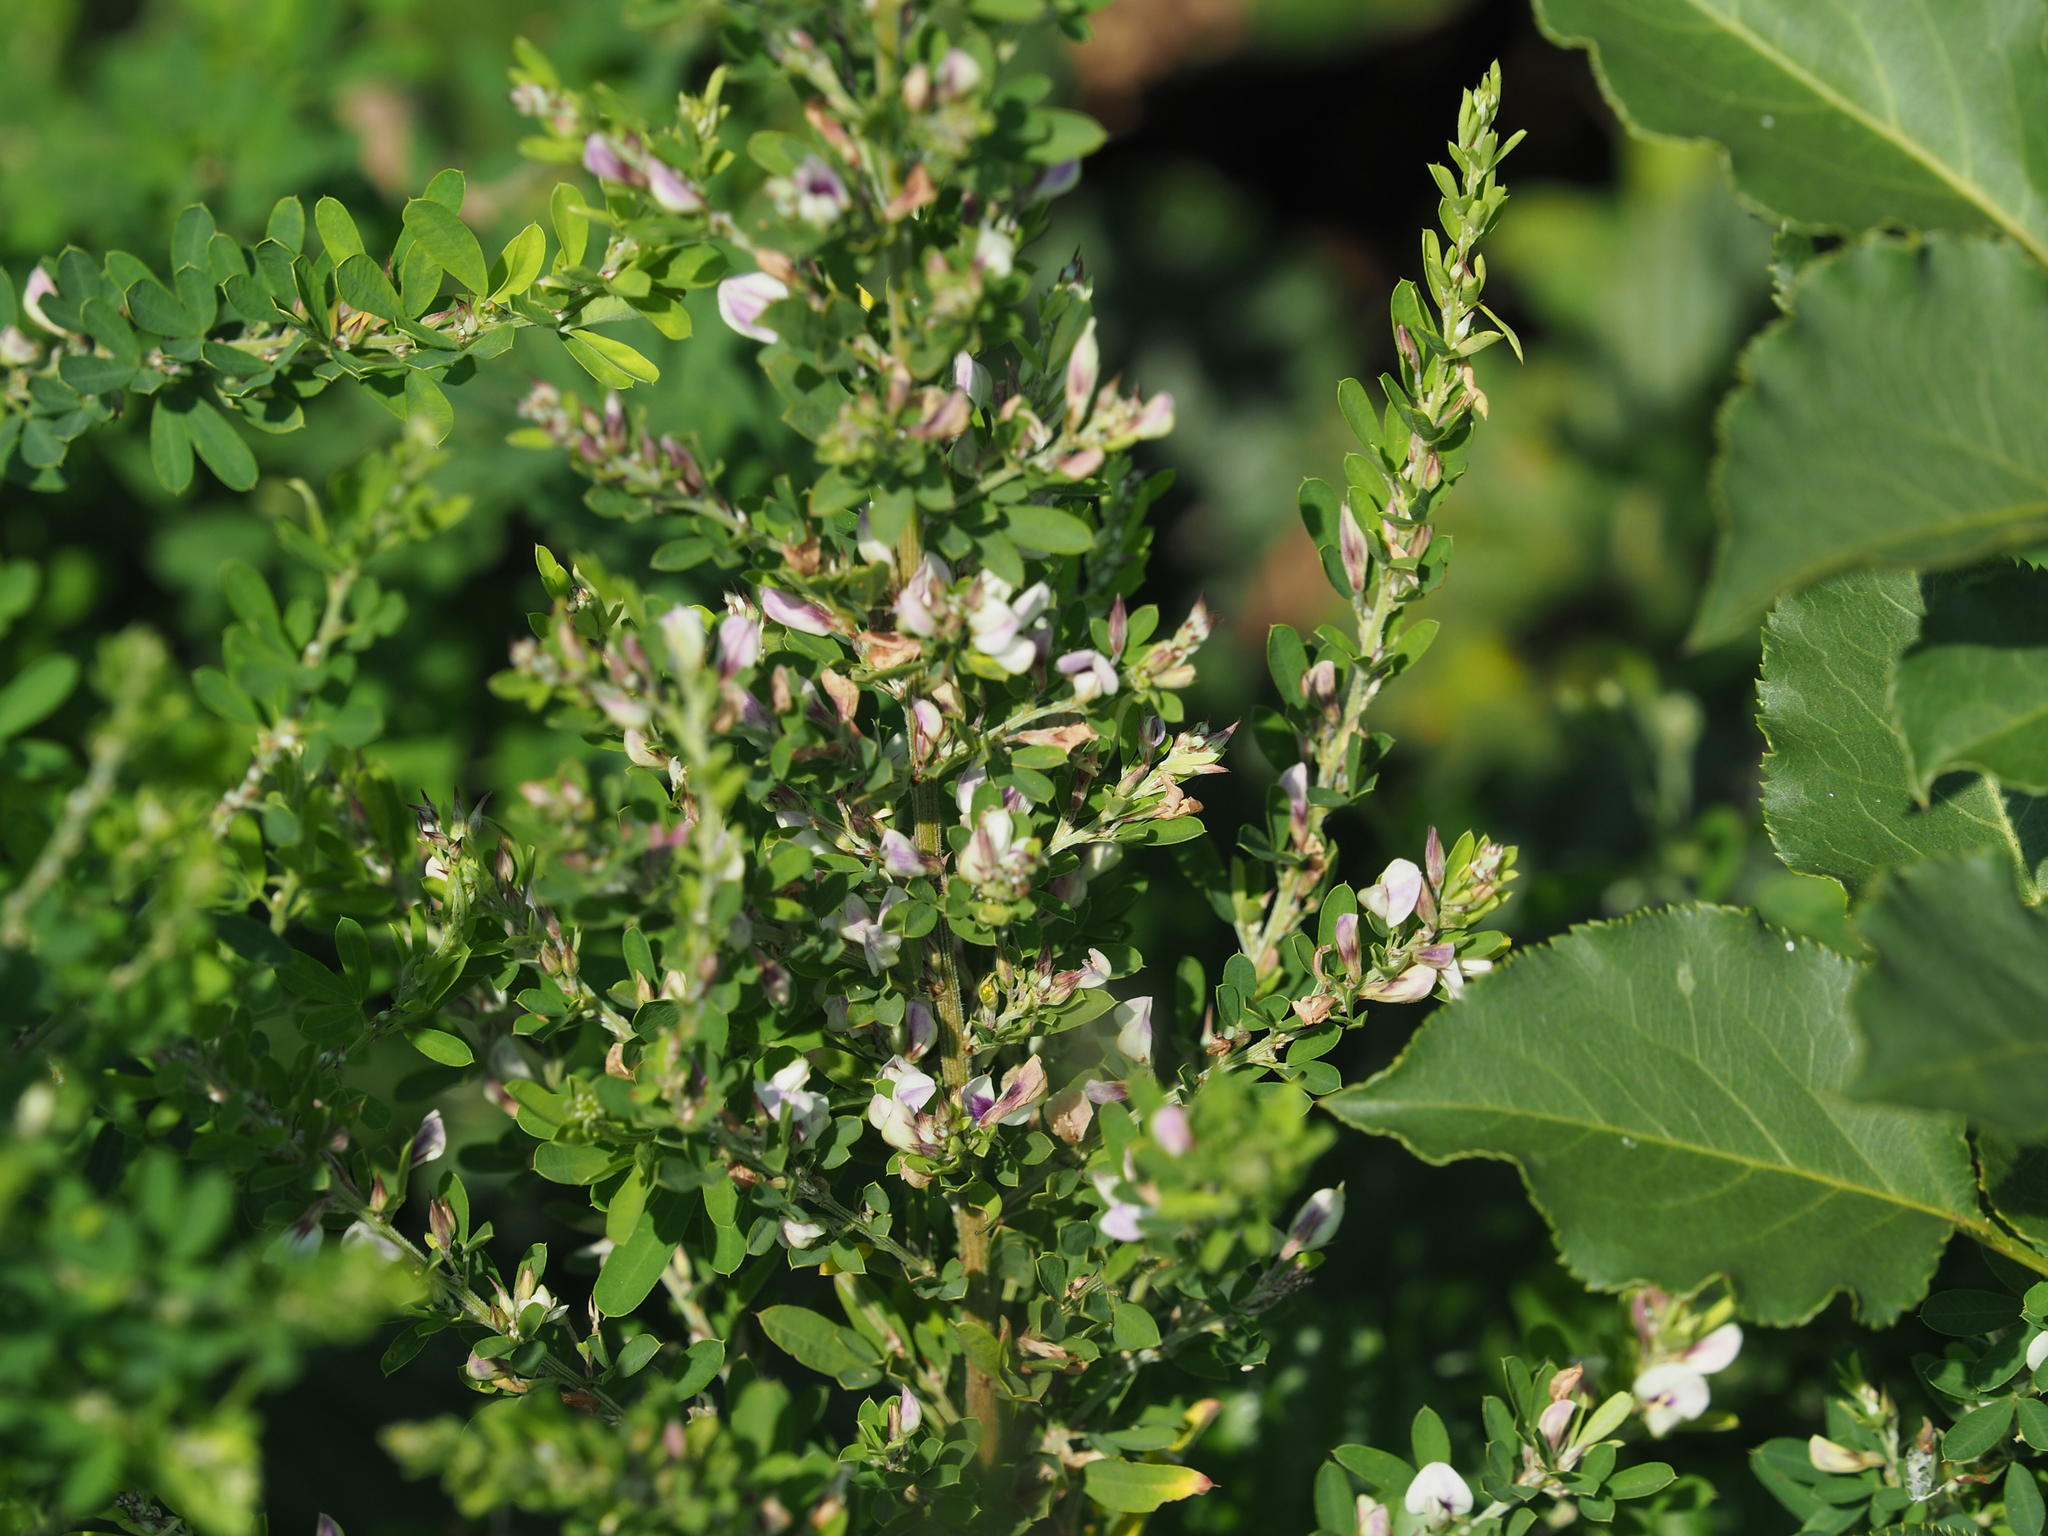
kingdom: Plantae
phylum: Tracheophyta
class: Magnoliopsida
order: Fabales
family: Fabaceae
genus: Lespedeza
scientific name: Lespedeza cuneata
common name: Chinese bush-clover
